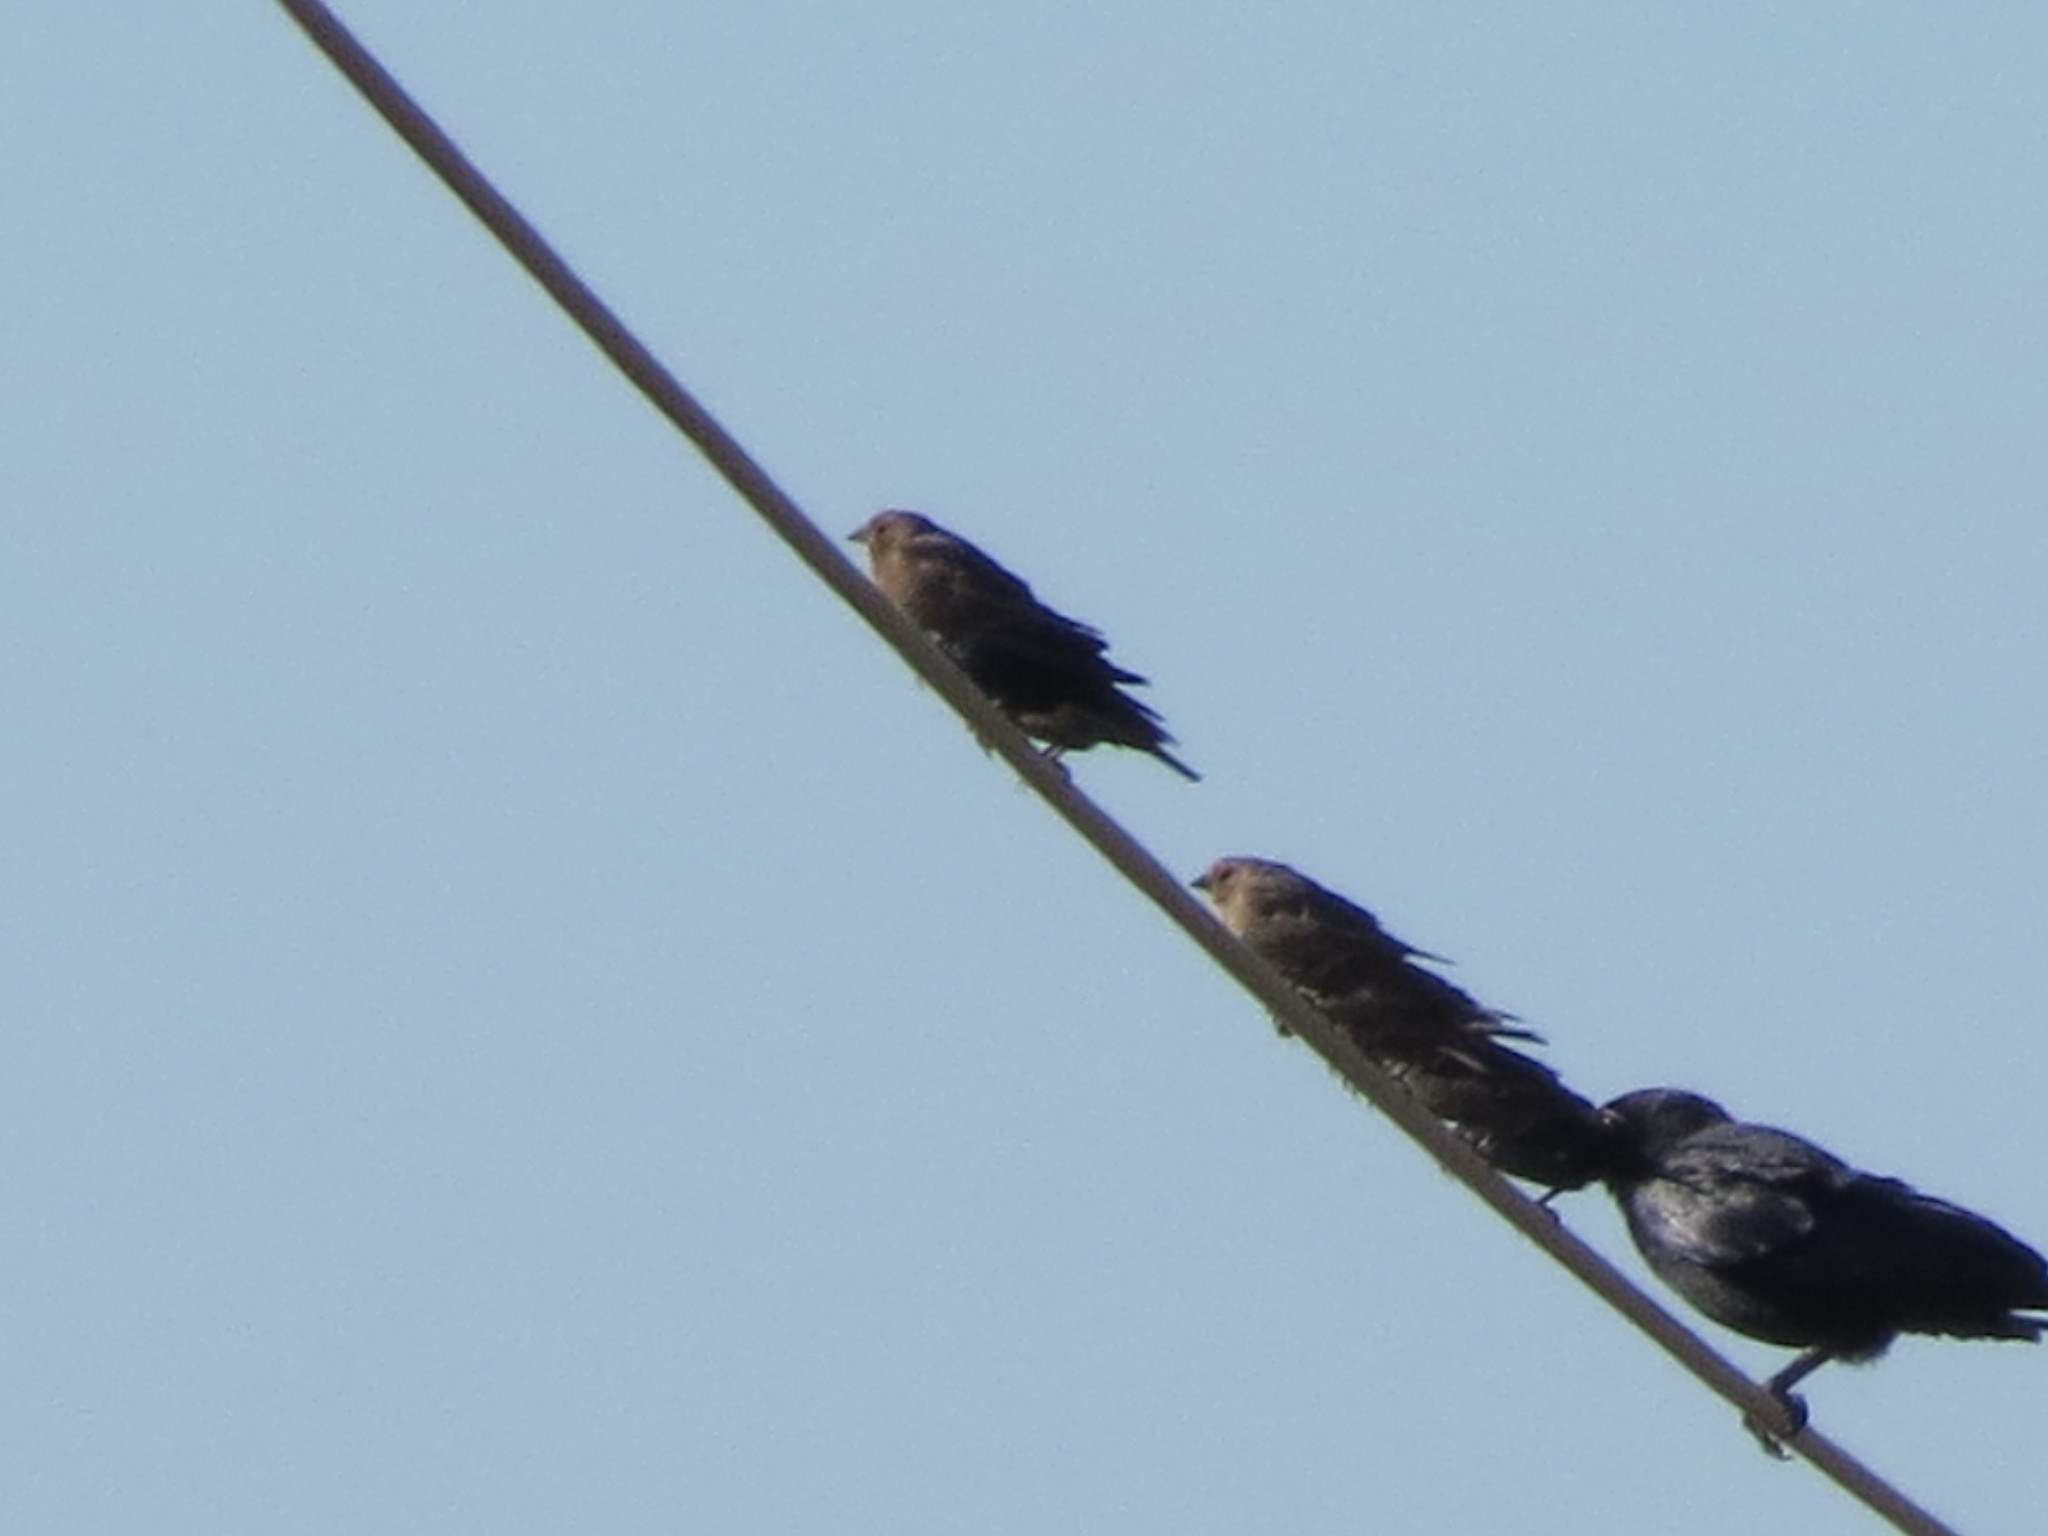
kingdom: Animalia
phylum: Chordata
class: Aves
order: Passeriformes
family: Icteridae
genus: Molothrus
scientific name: Molothrus ater
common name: Brown-headed cowbird
